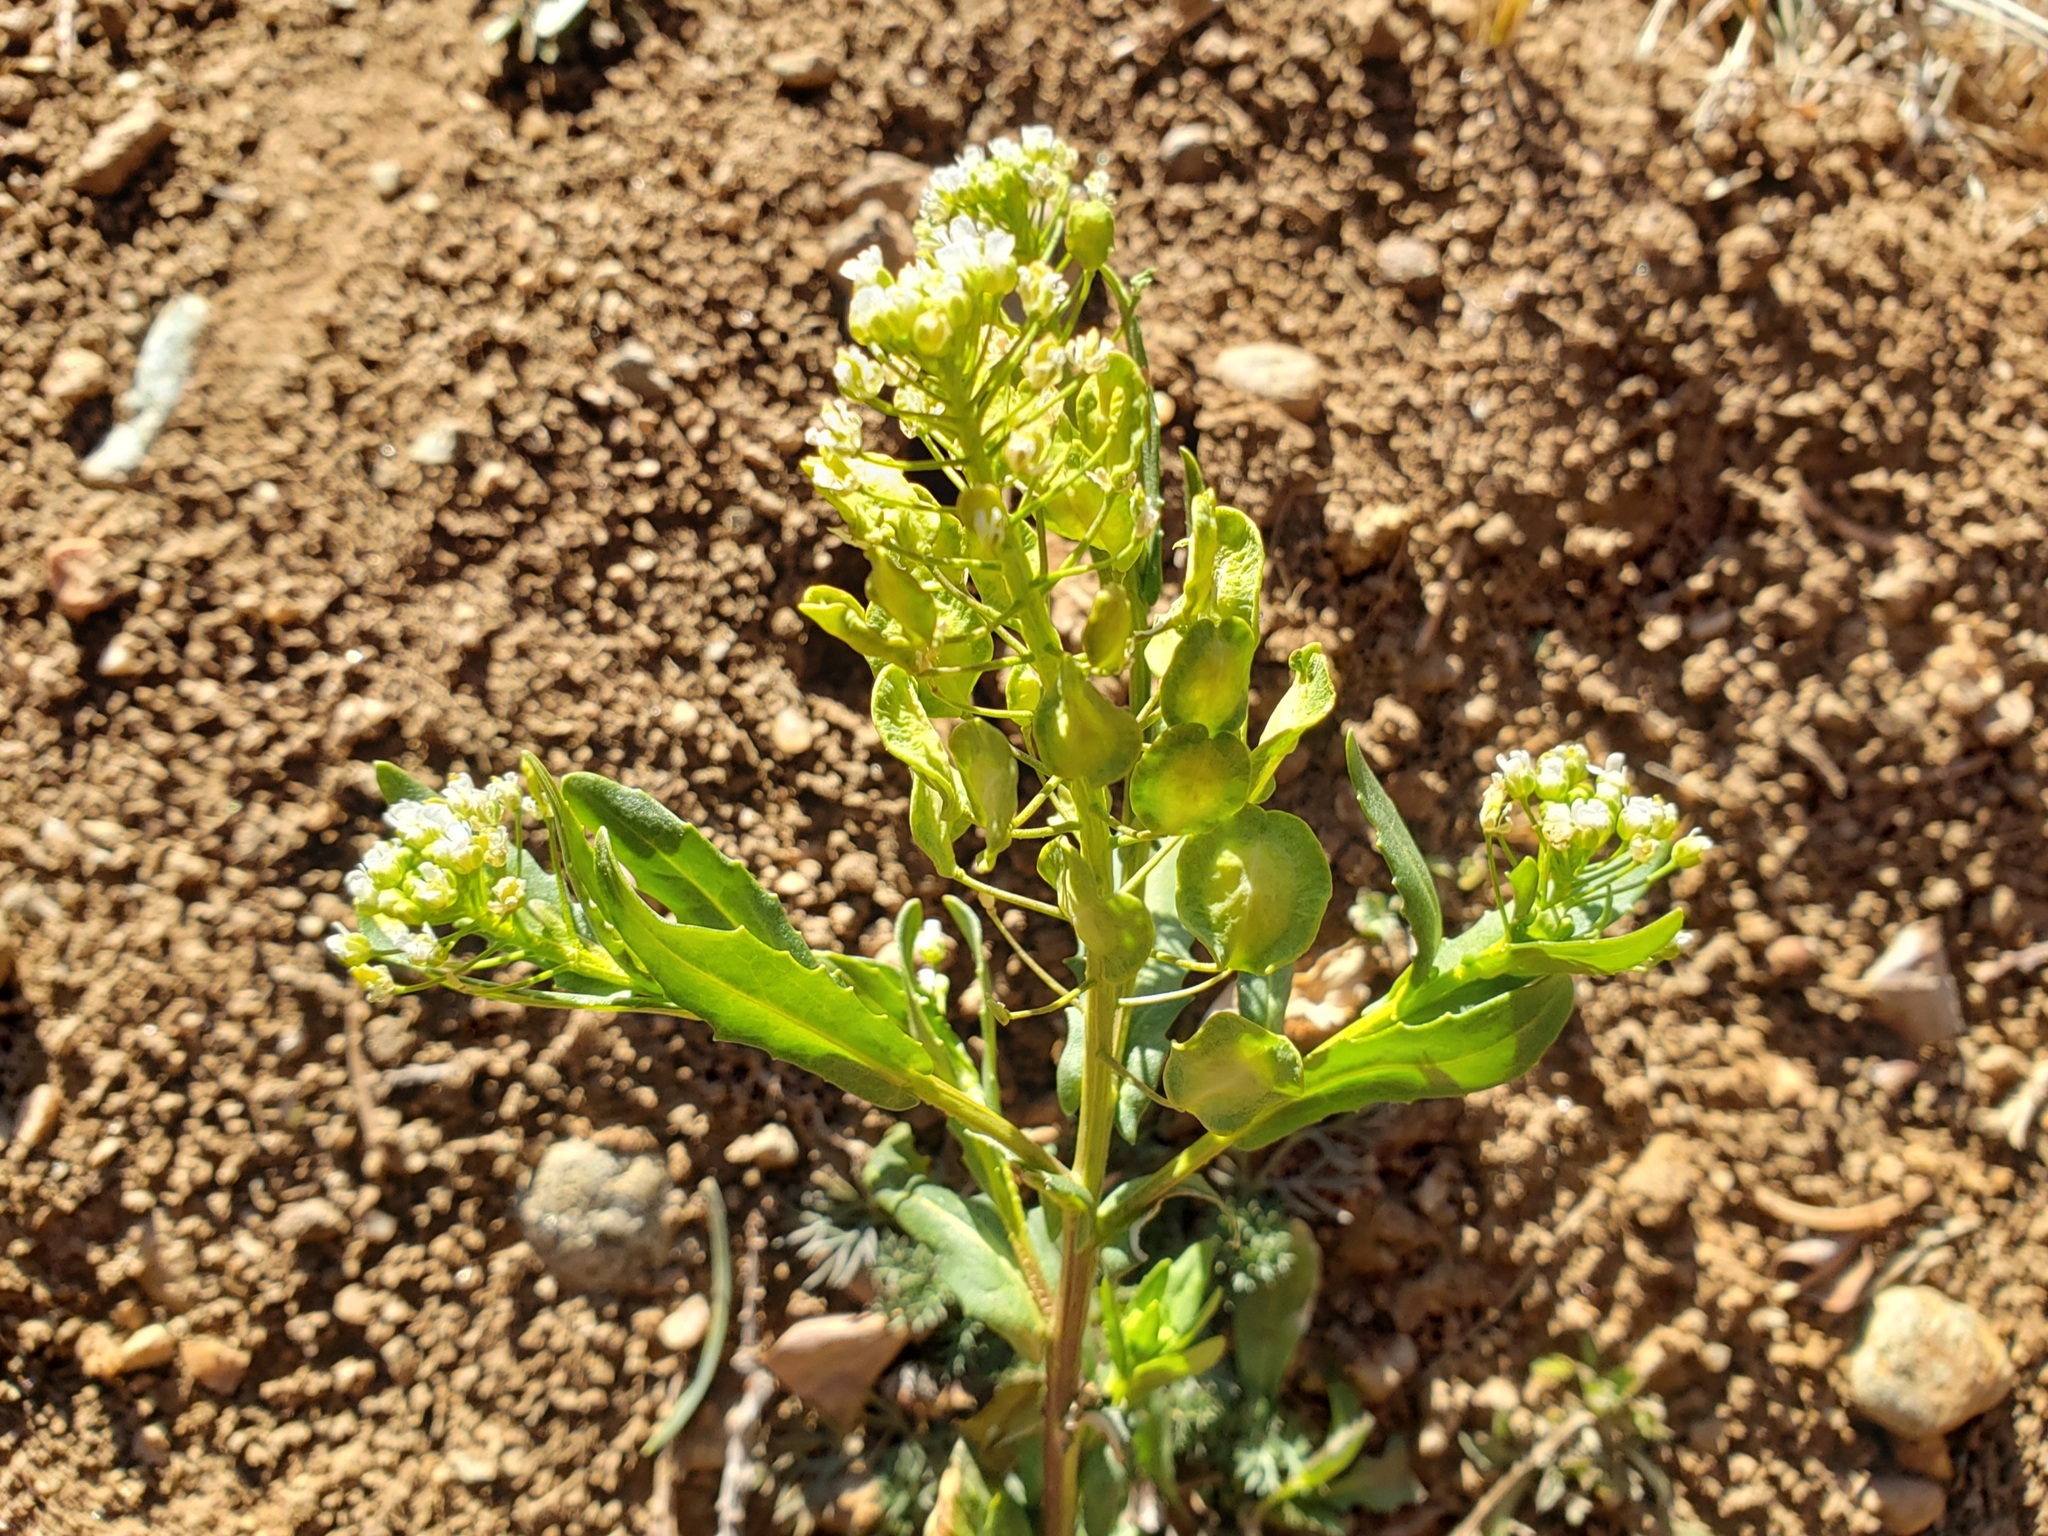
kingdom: Plantae
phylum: Tracheophyta
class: Magnoliopsida
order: Brassicales
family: Brassicaceae
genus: Thlaspi
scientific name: Thlaspi arvense
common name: Field pennycress
